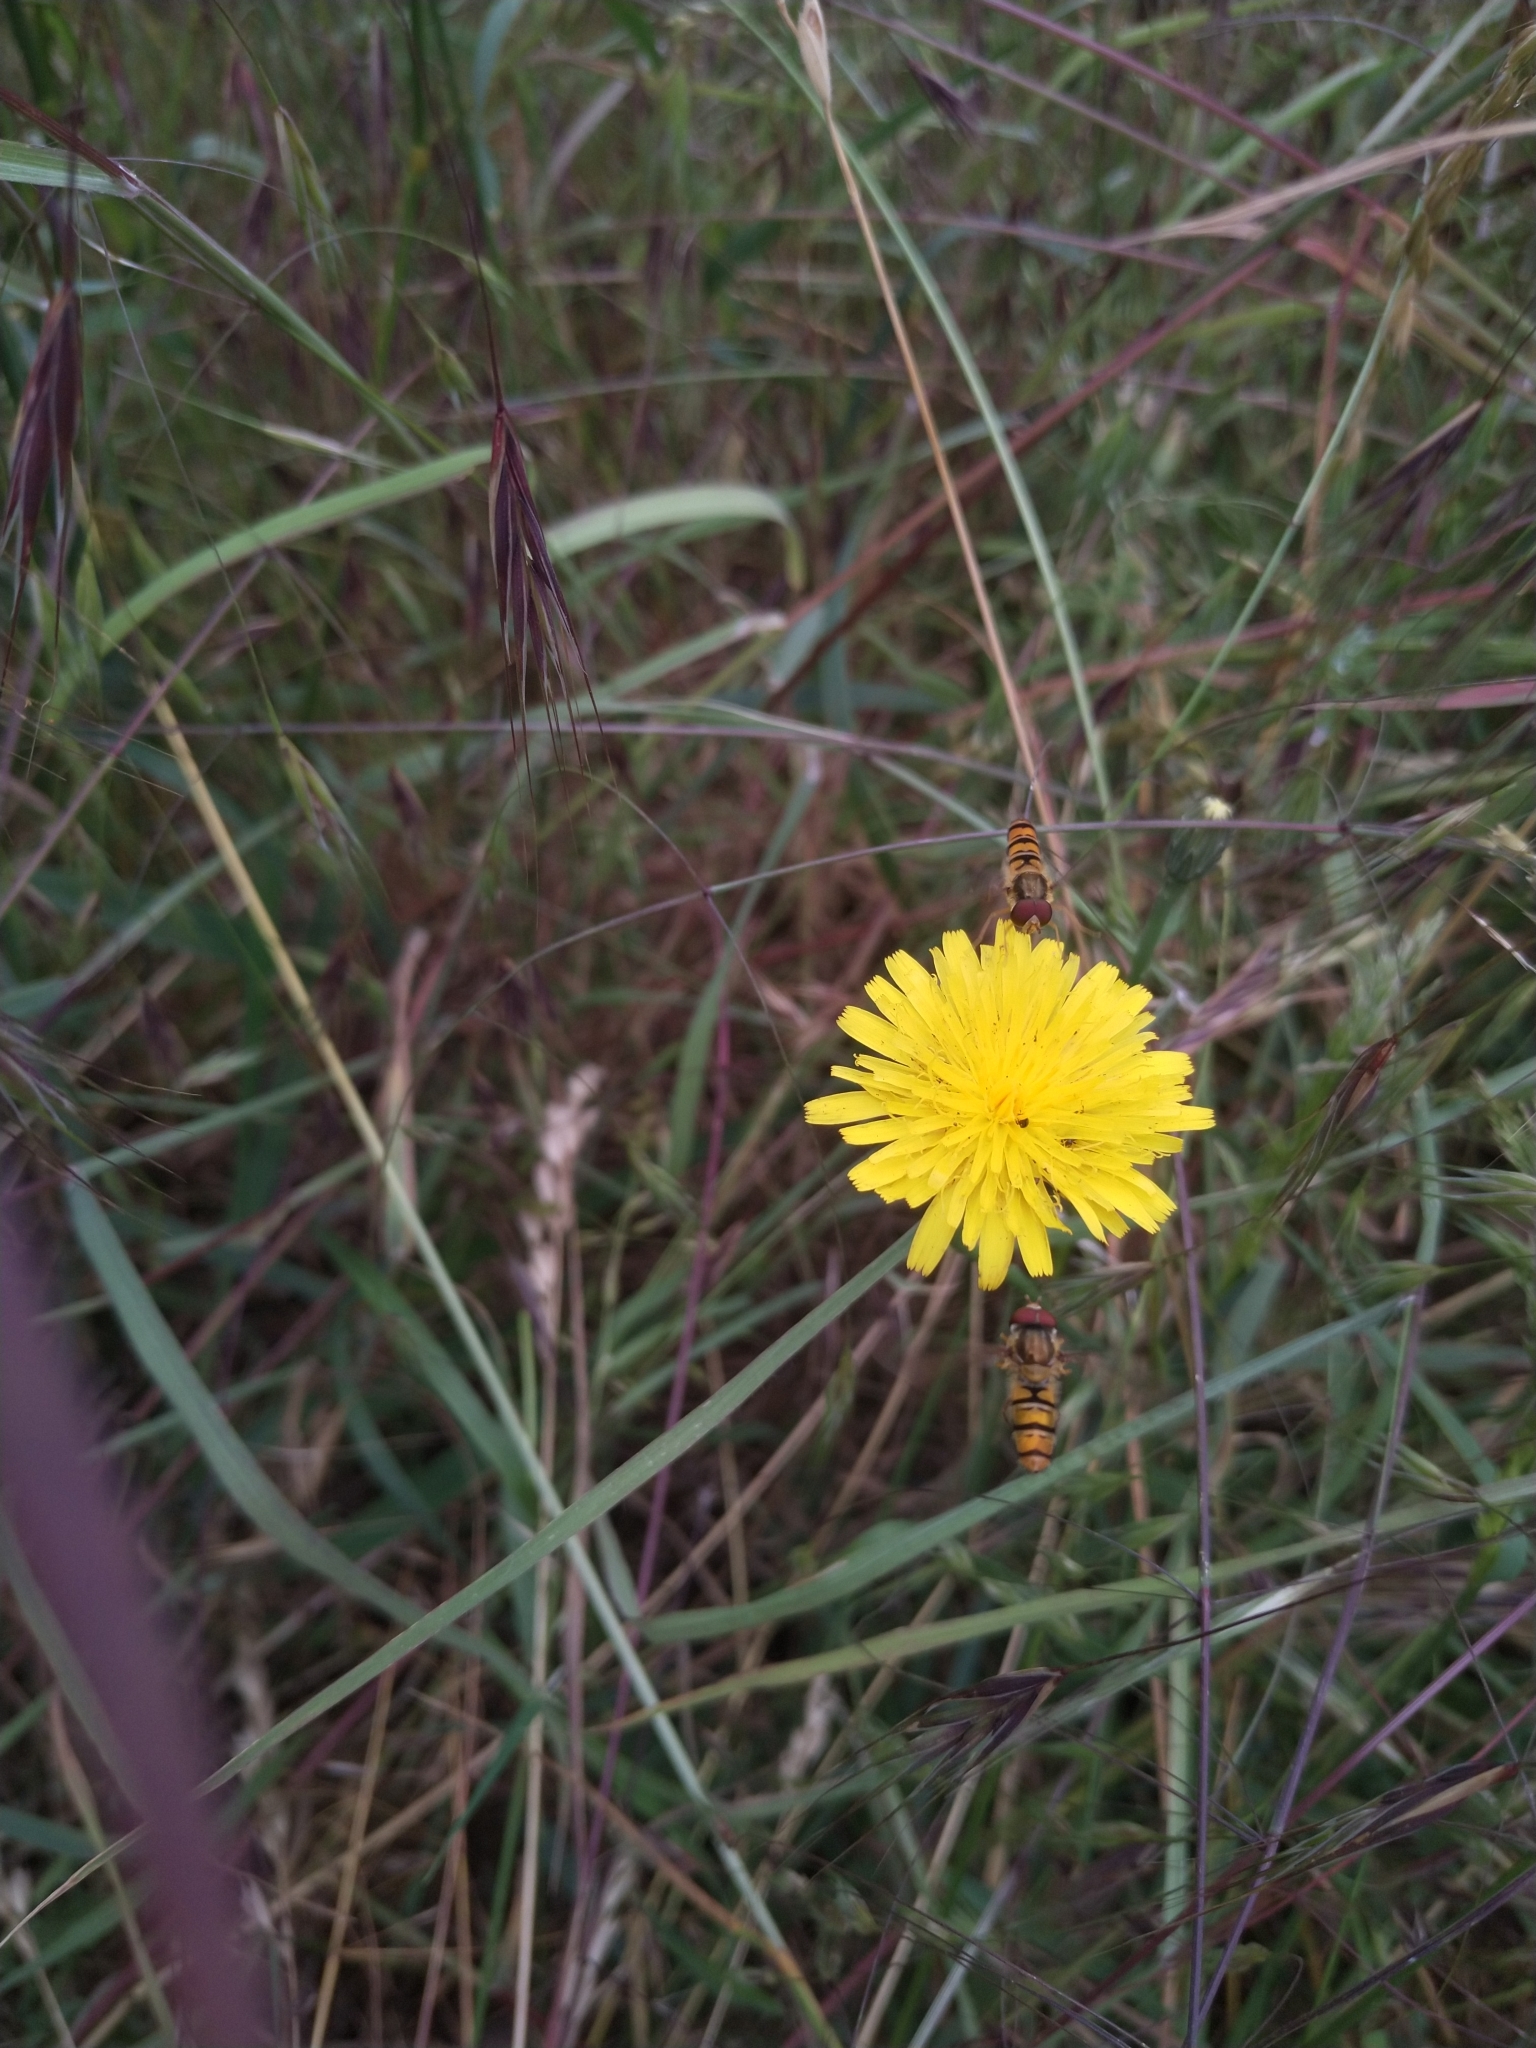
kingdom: Animalia
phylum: Arthropoda
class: Insecta
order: Diptera
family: Syrphidae
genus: Episyrphus
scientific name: Episyrphus balteatus
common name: Marmalade hoverfly
